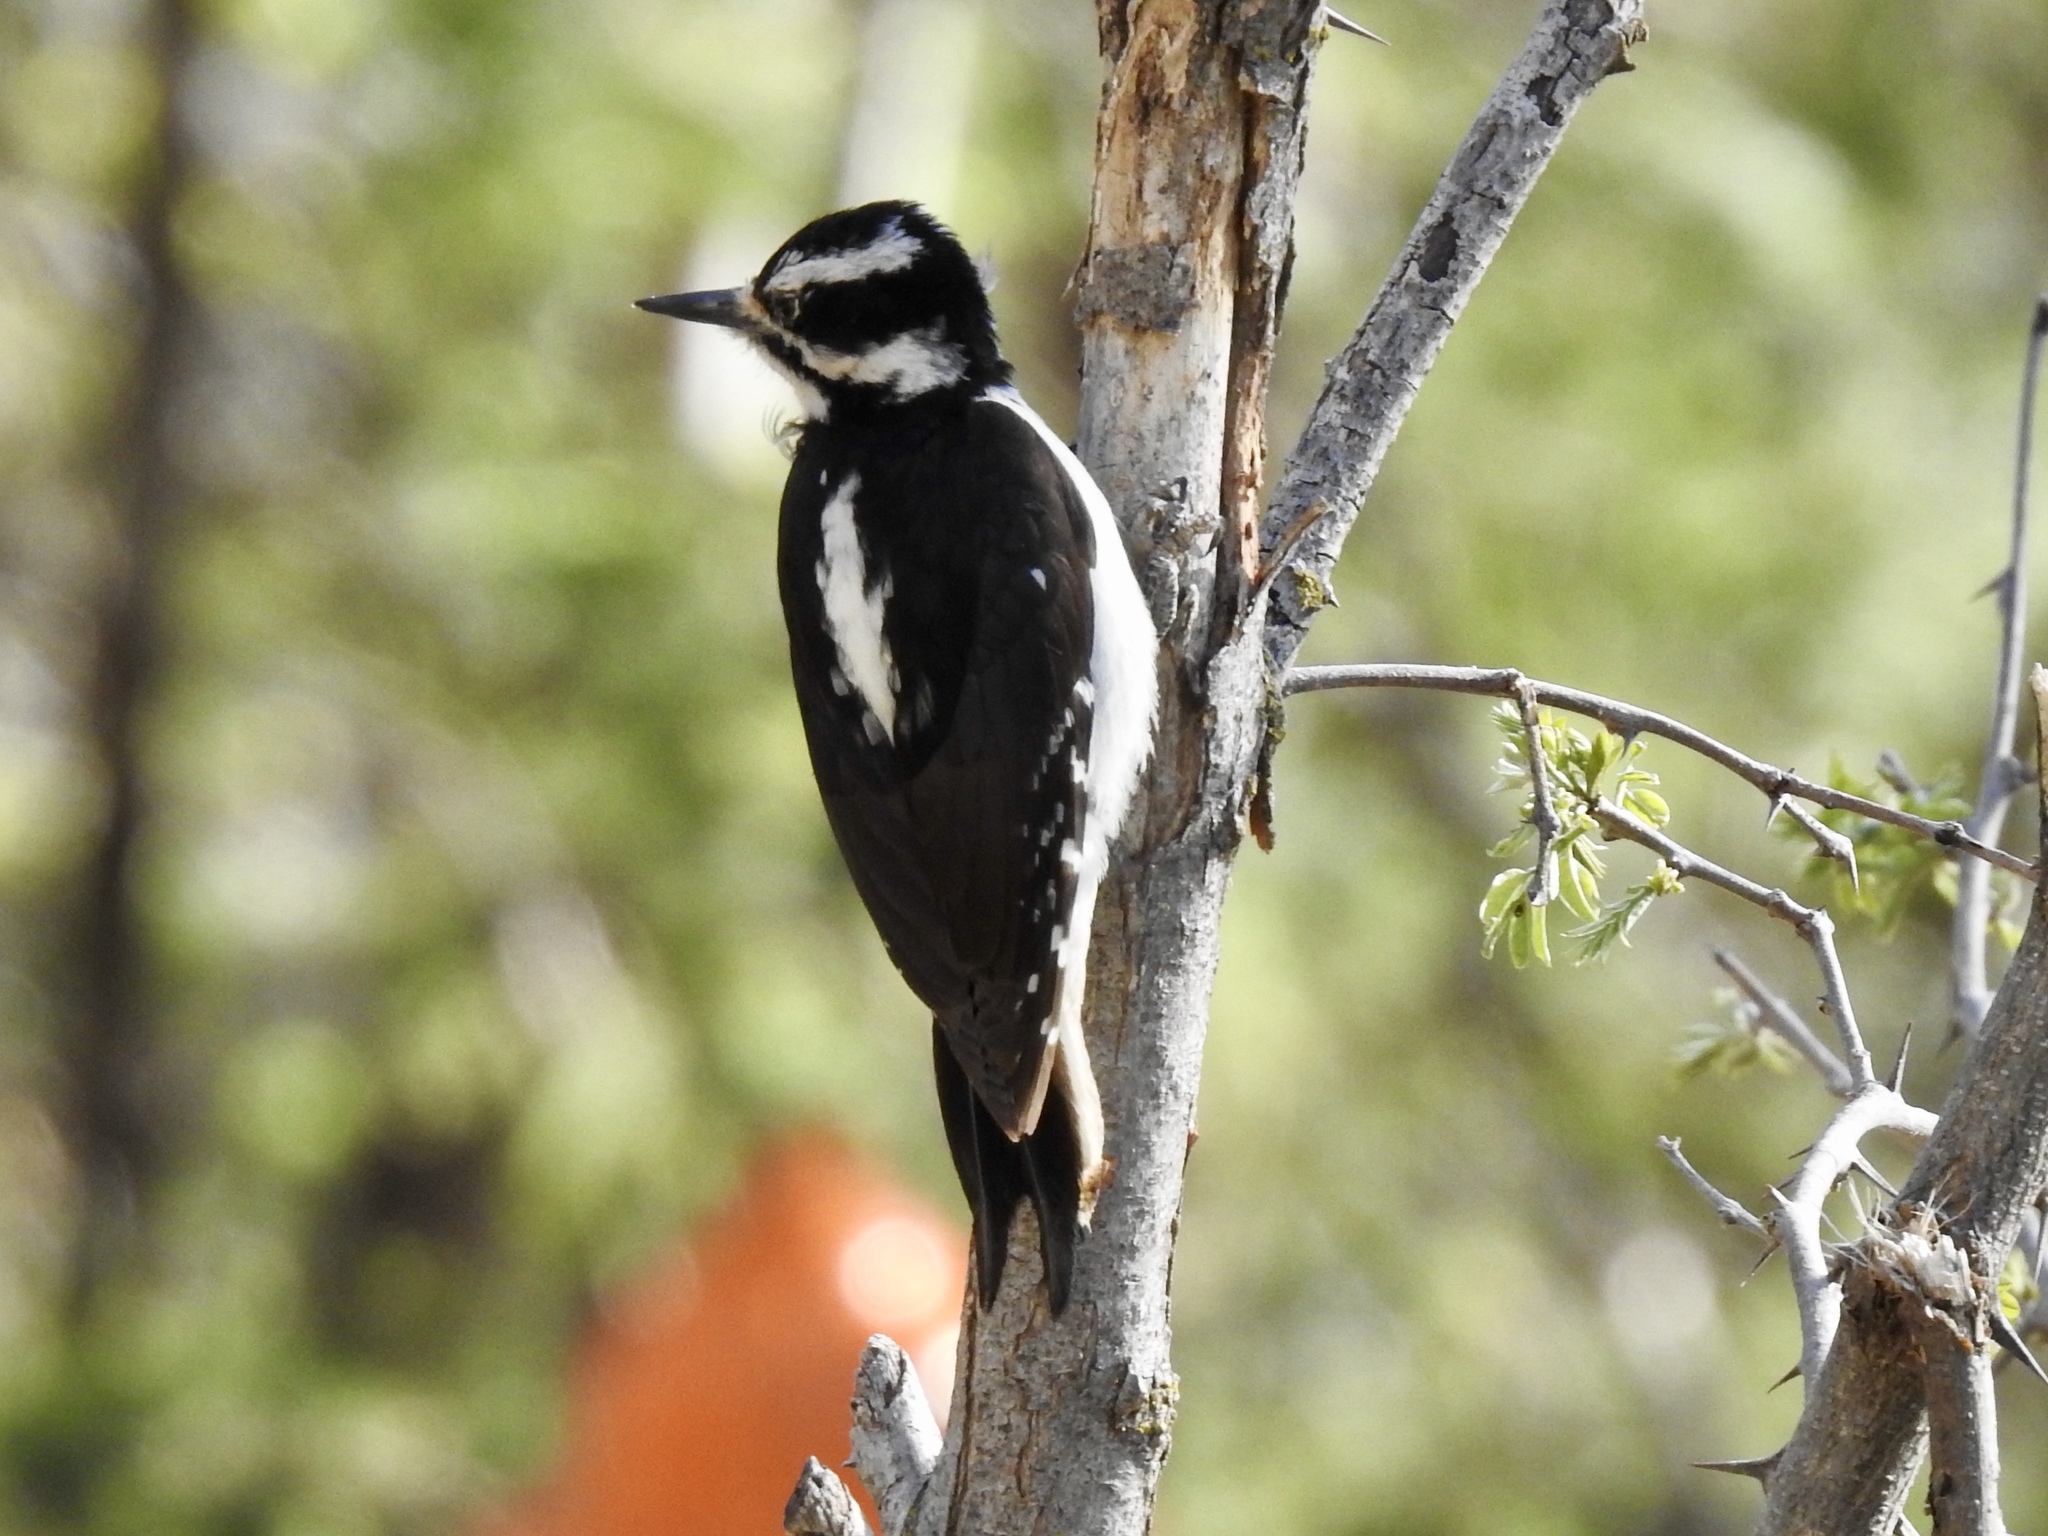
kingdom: Animalia
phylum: Chordata
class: Aves
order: Piciformes
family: Picidae
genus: Leuconotopicus
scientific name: Leuconotopicus villosus
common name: Hairy woodpecker
